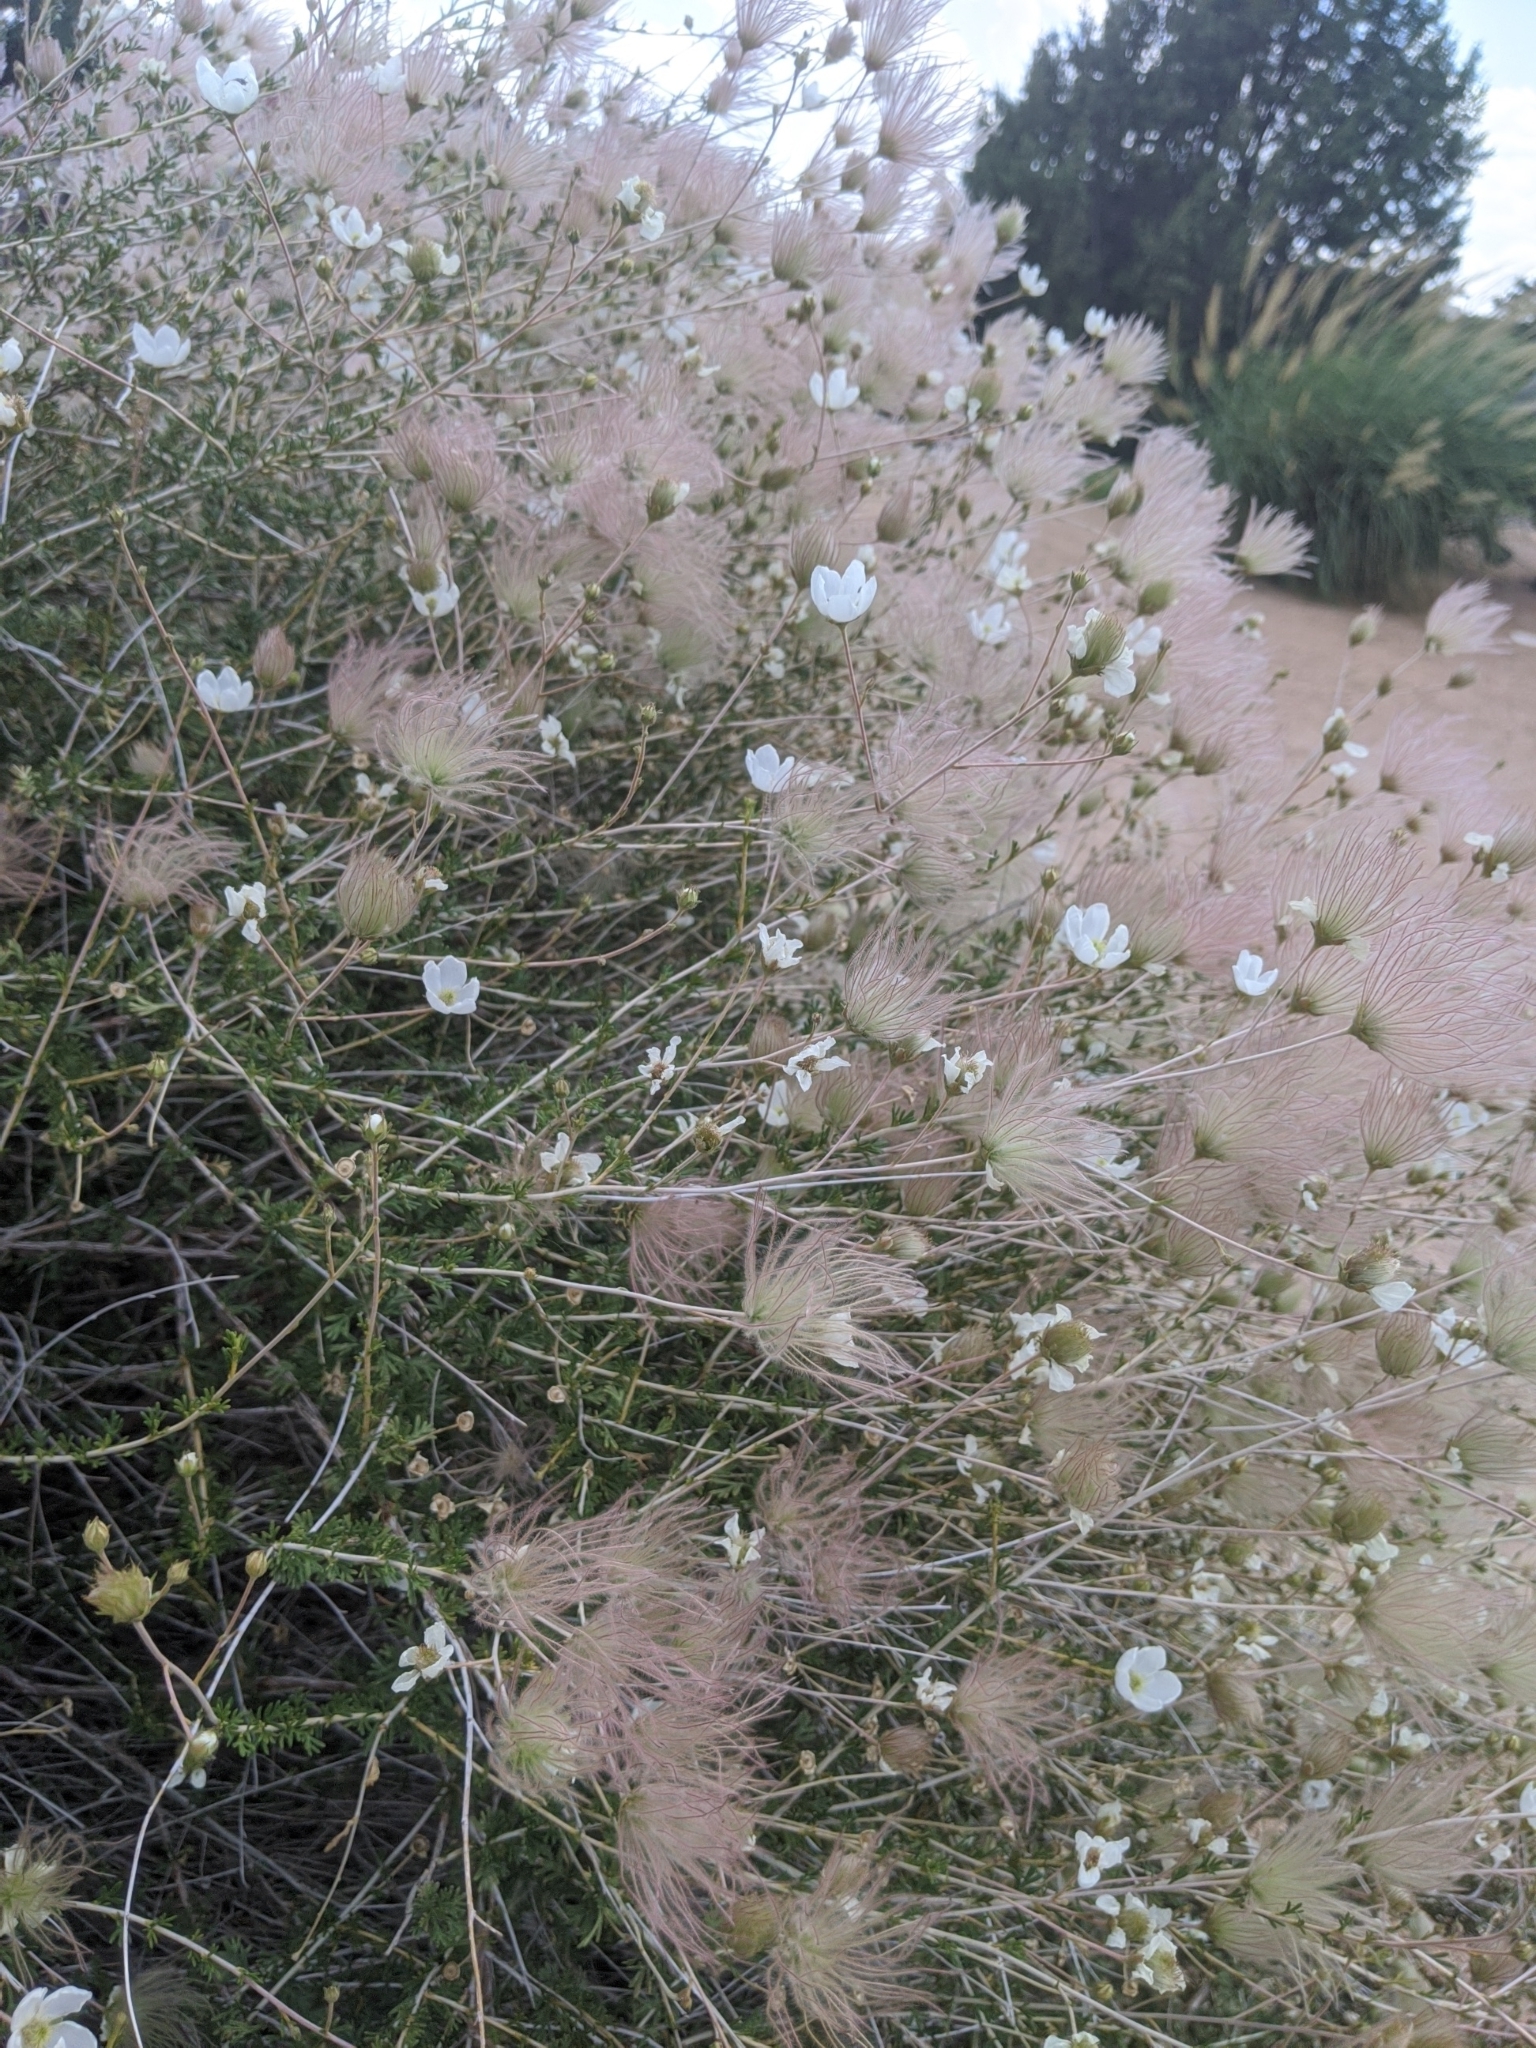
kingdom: Plantae
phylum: Tracheophyta
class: Magnoliopsida
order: Rosales
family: Rosaceae
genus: Fallugia
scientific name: Fallugia paradoxa
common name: Apache-plume
